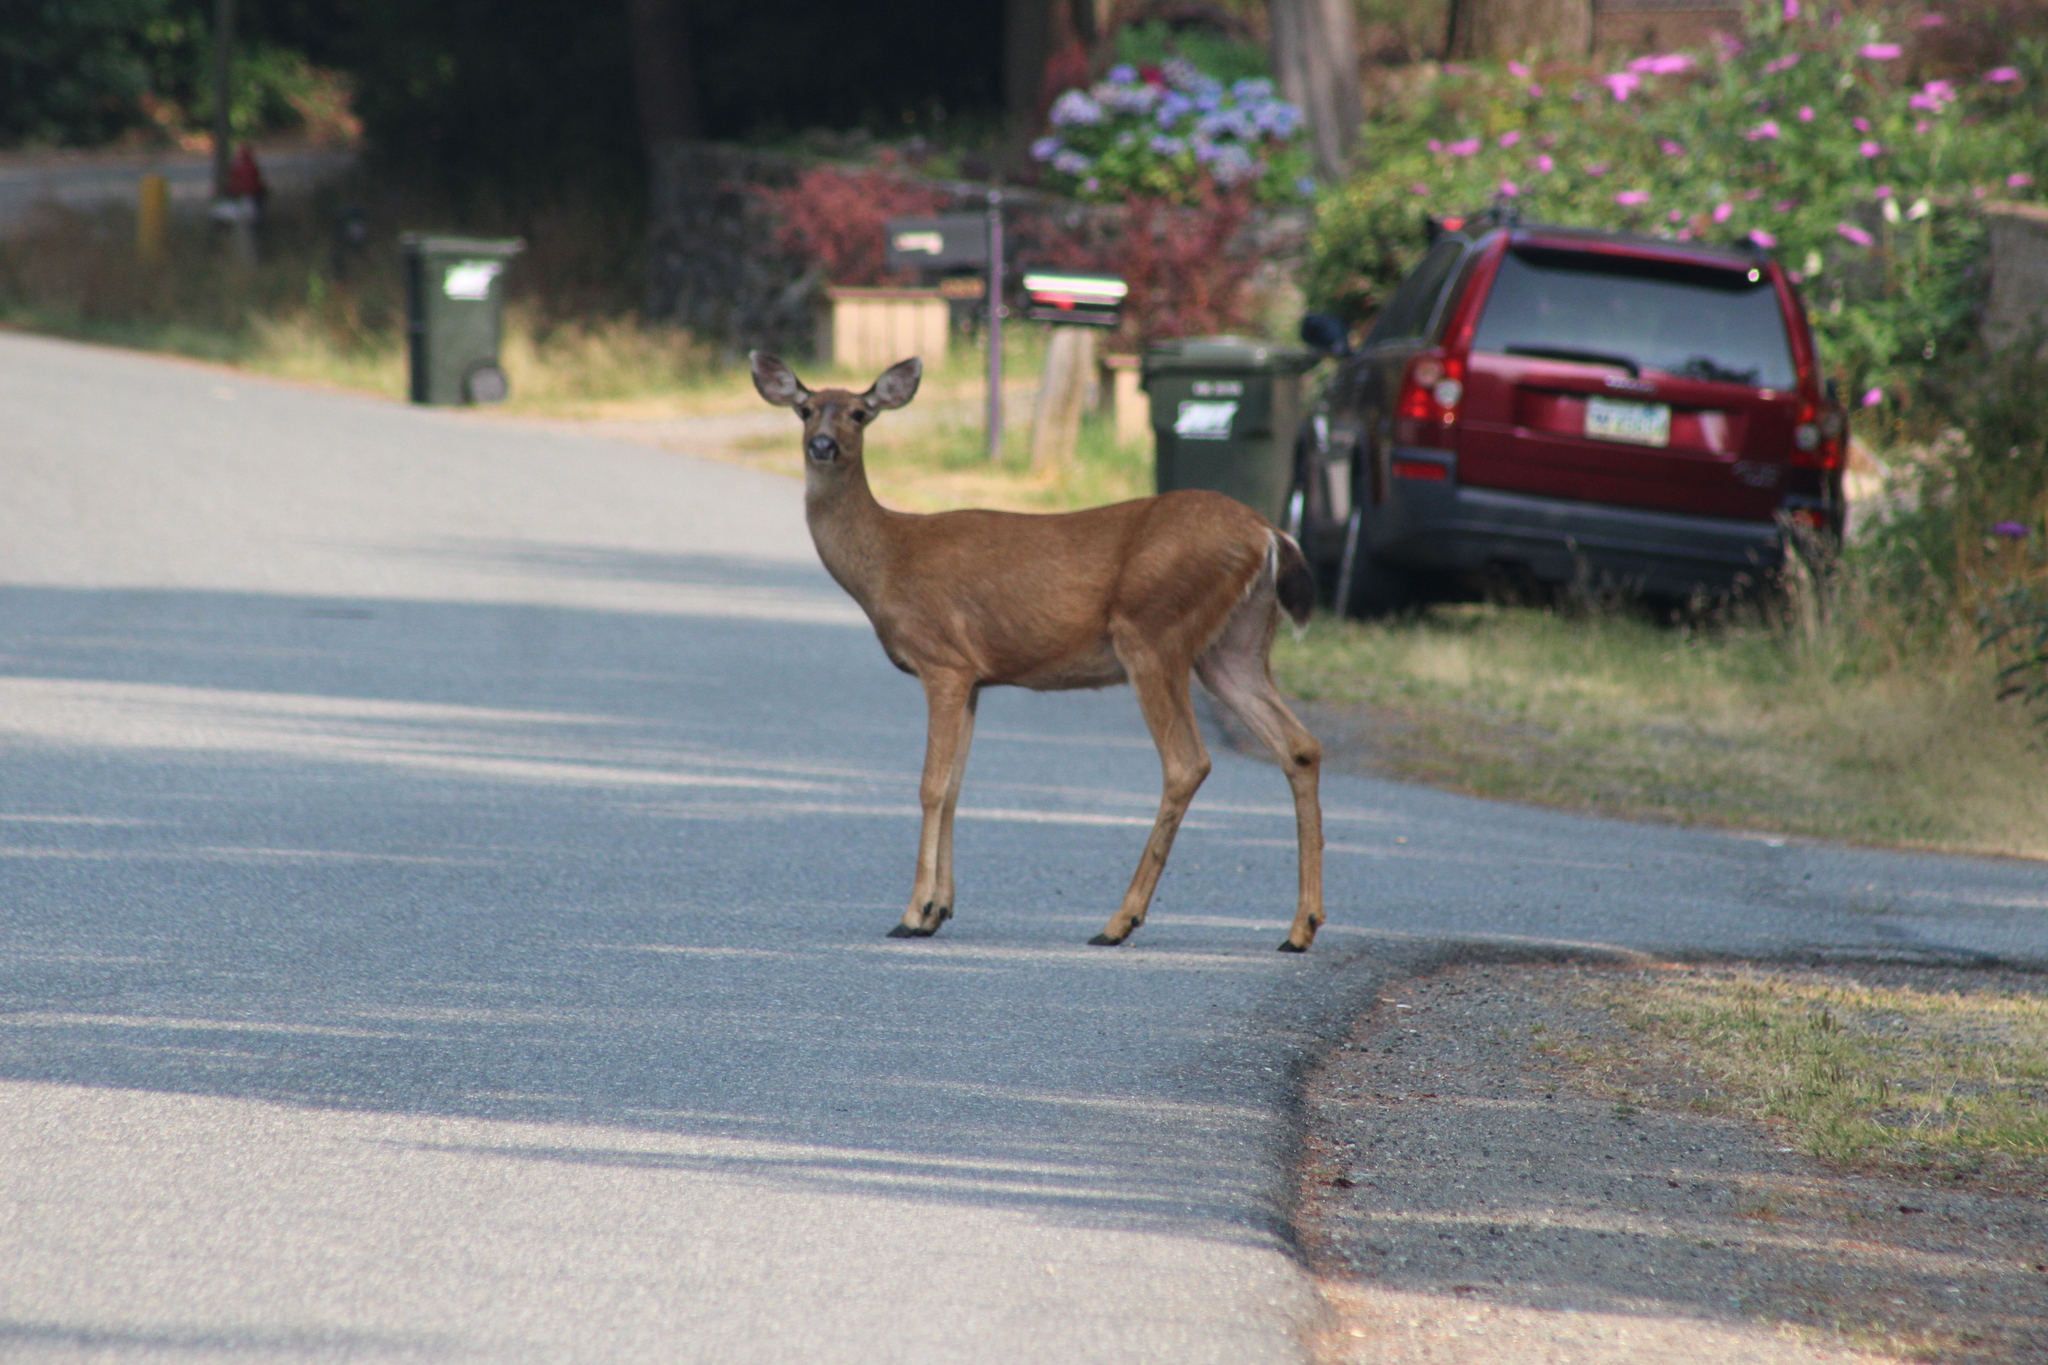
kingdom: Animalia
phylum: Chordata
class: Mammalia
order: Artiodactyla
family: Cervidae
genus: Odocoileus
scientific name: Odocoileus hemionus
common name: Mule deer
